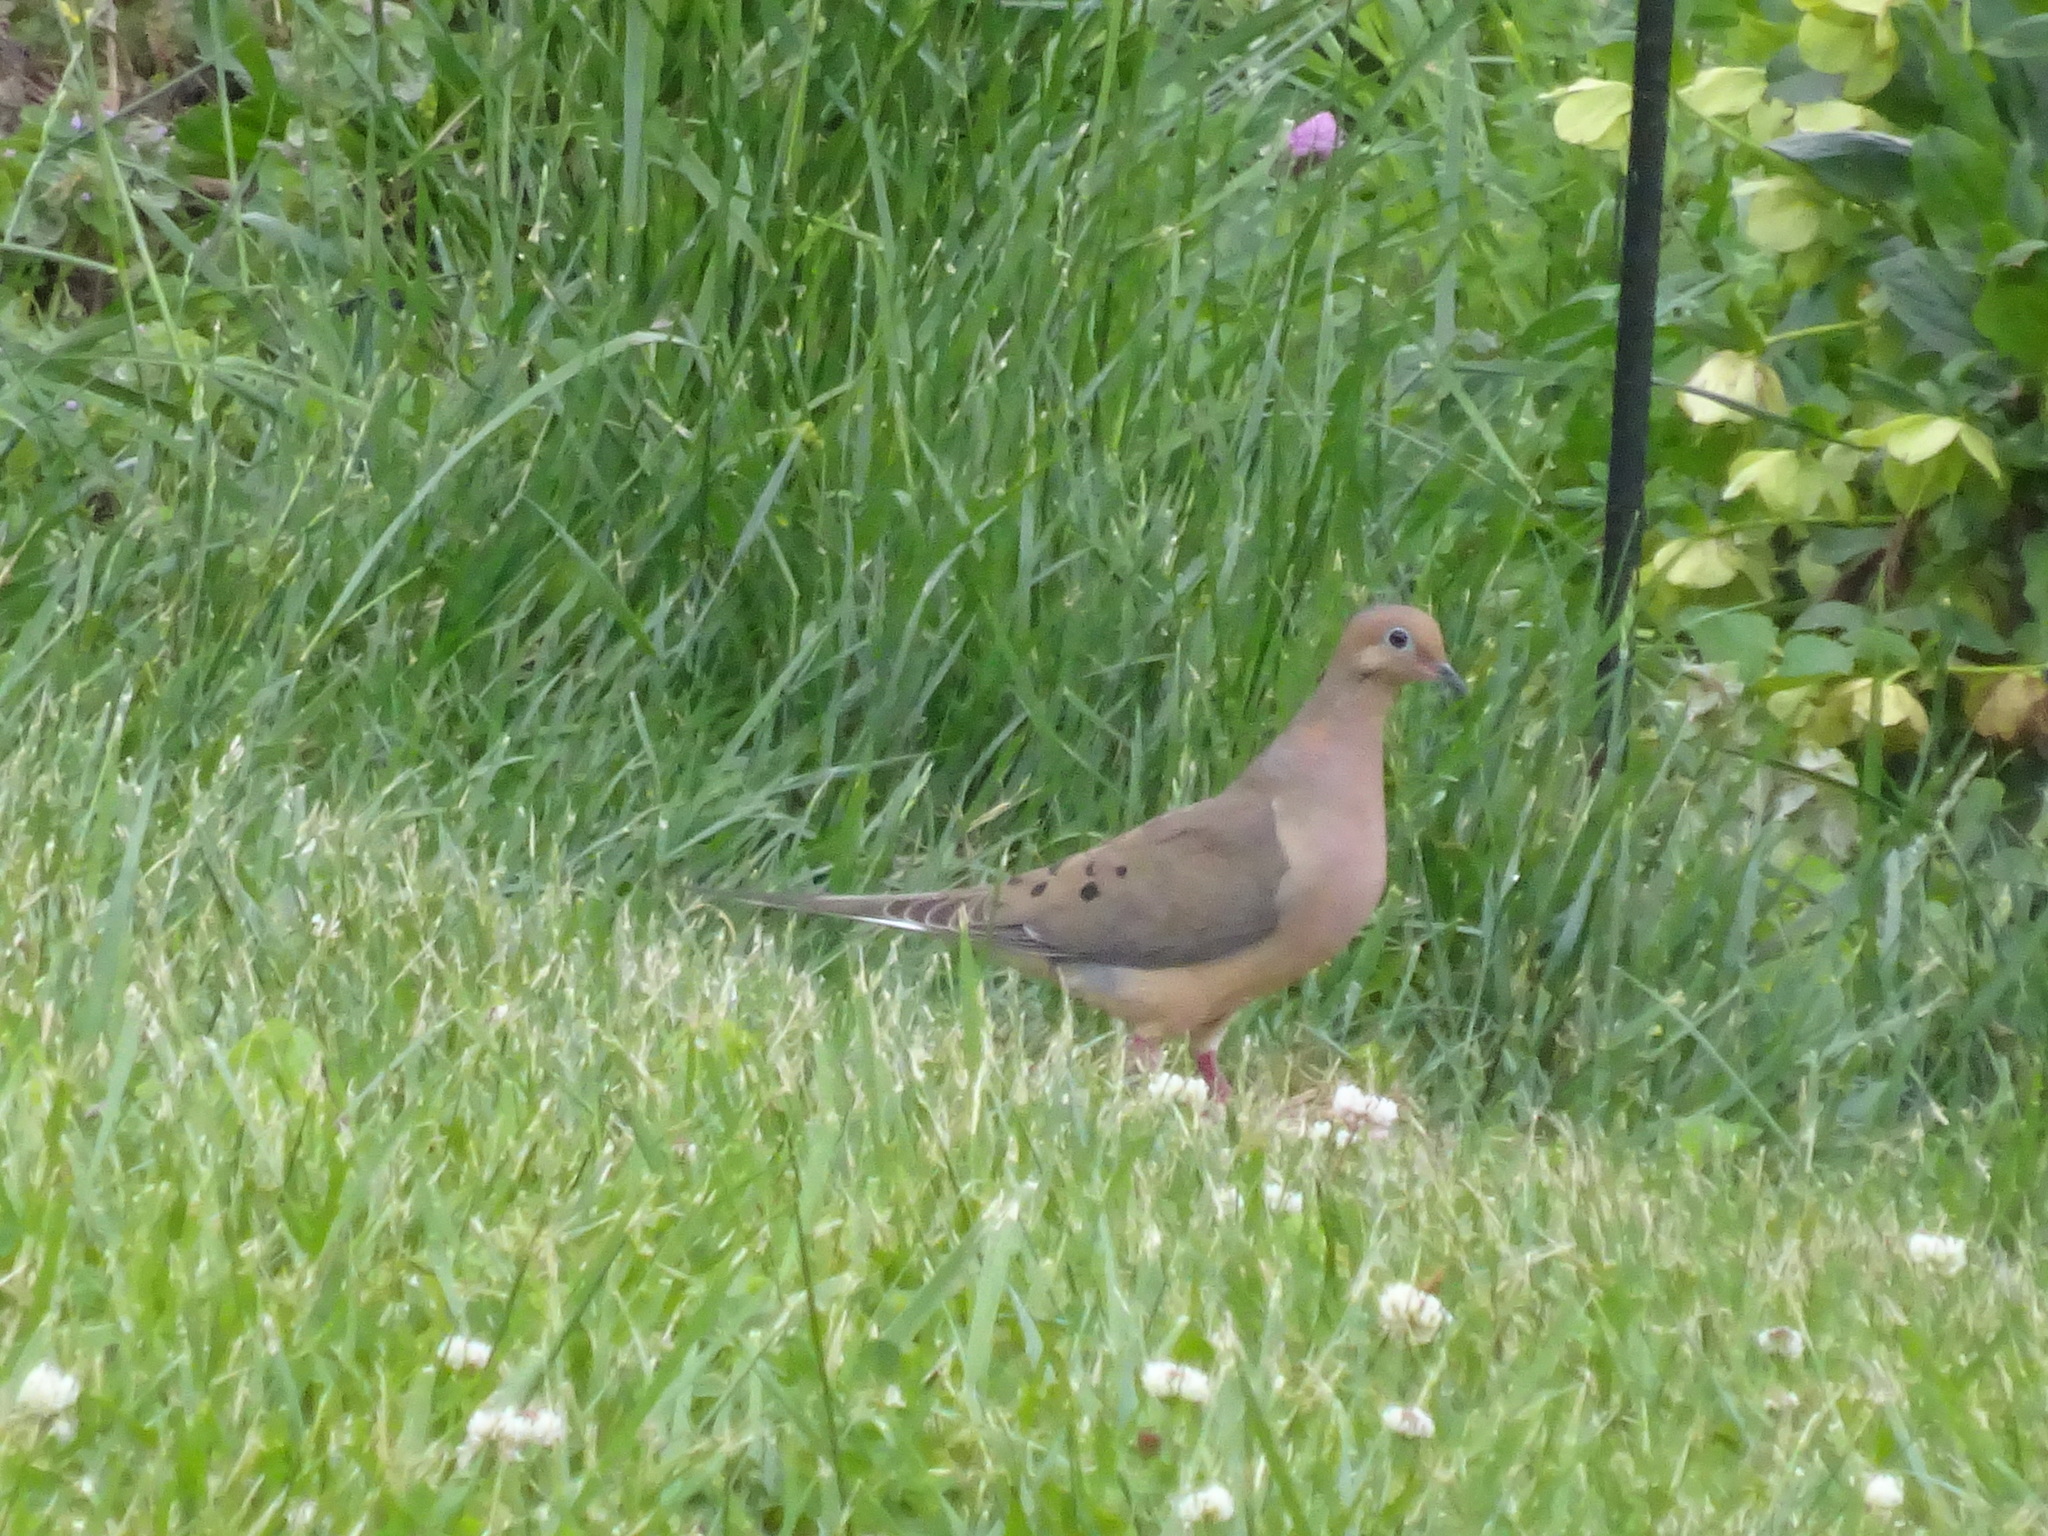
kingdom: Animalia
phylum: Chordata
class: Aves
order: Columbiformes
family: Columbidae
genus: Zenaida
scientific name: Zenaida macroura
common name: Mourning dove
